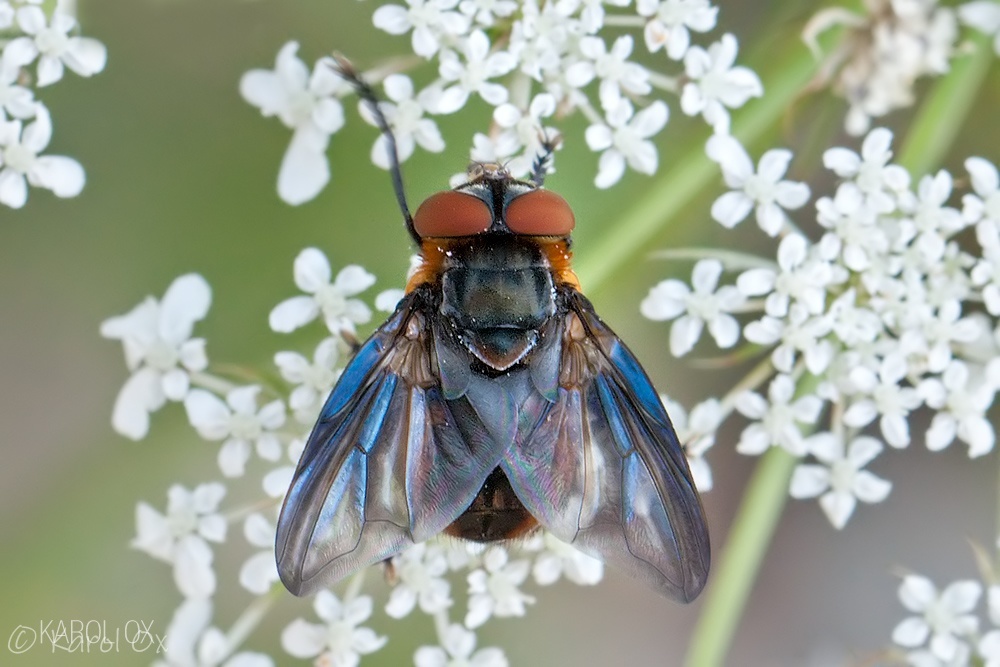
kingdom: Animalia
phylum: Arthropoda
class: Insecta
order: Diptera
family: Tachinidae
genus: Phasia
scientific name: Phasia hemiptera
